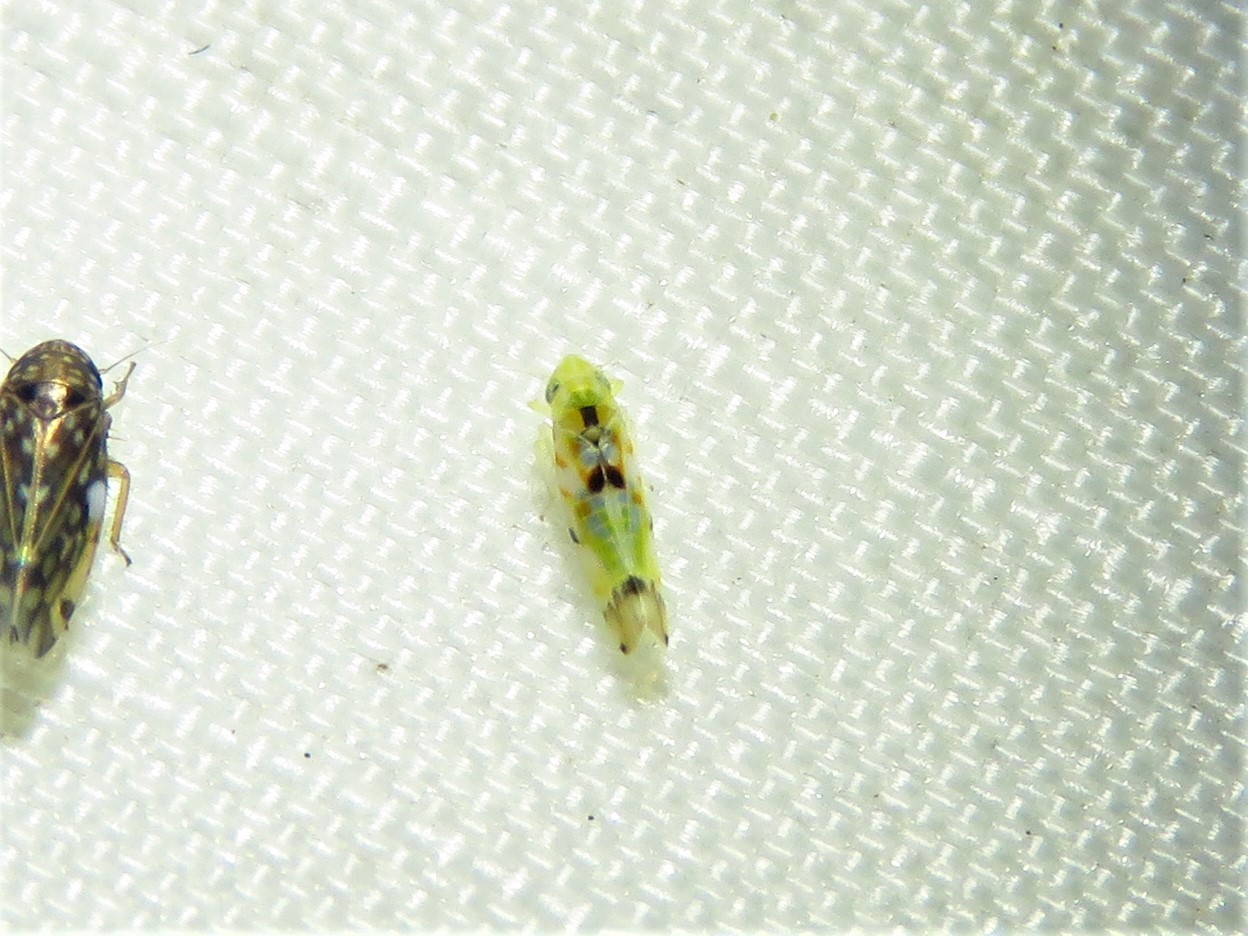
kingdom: Animalia
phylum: Arthropoda
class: Insecta
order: Hemiptera
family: Cicadellidae
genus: Erythroneura
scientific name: Erythroneura octonotata
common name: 8-spotted leafhopper
